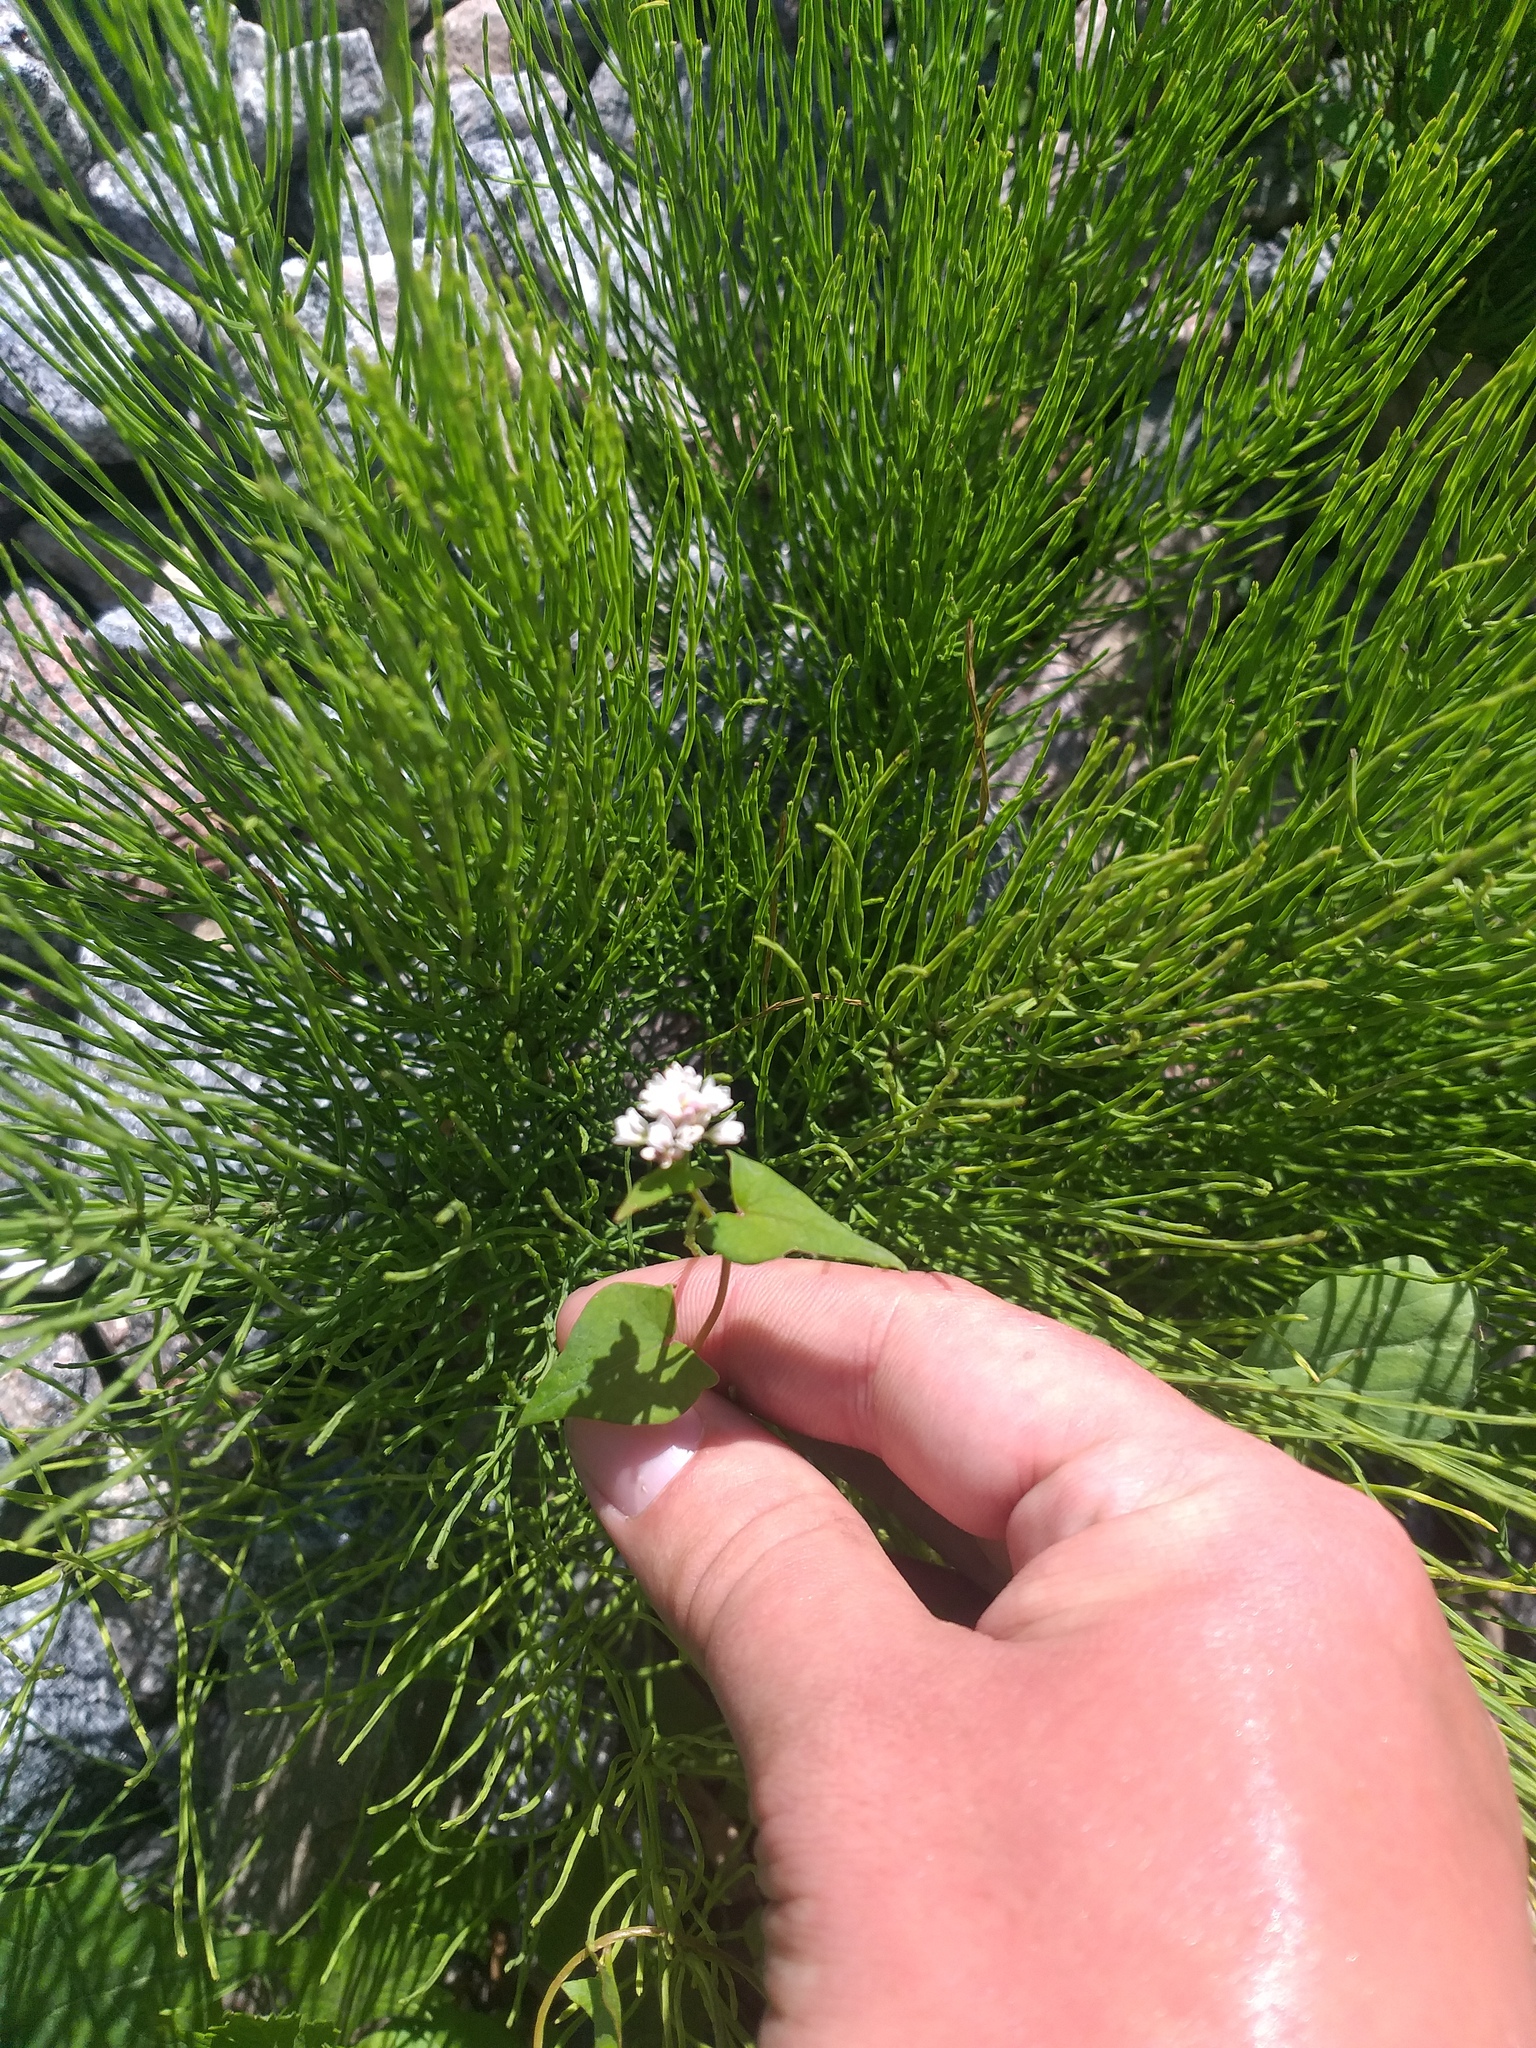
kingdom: Plantae
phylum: Tracheophyta
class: Magnoliopsida
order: Caryophyllales
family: Polygonaceae
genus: Fagopyrum
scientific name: Fagopyrum esculentum
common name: Buckwheat
